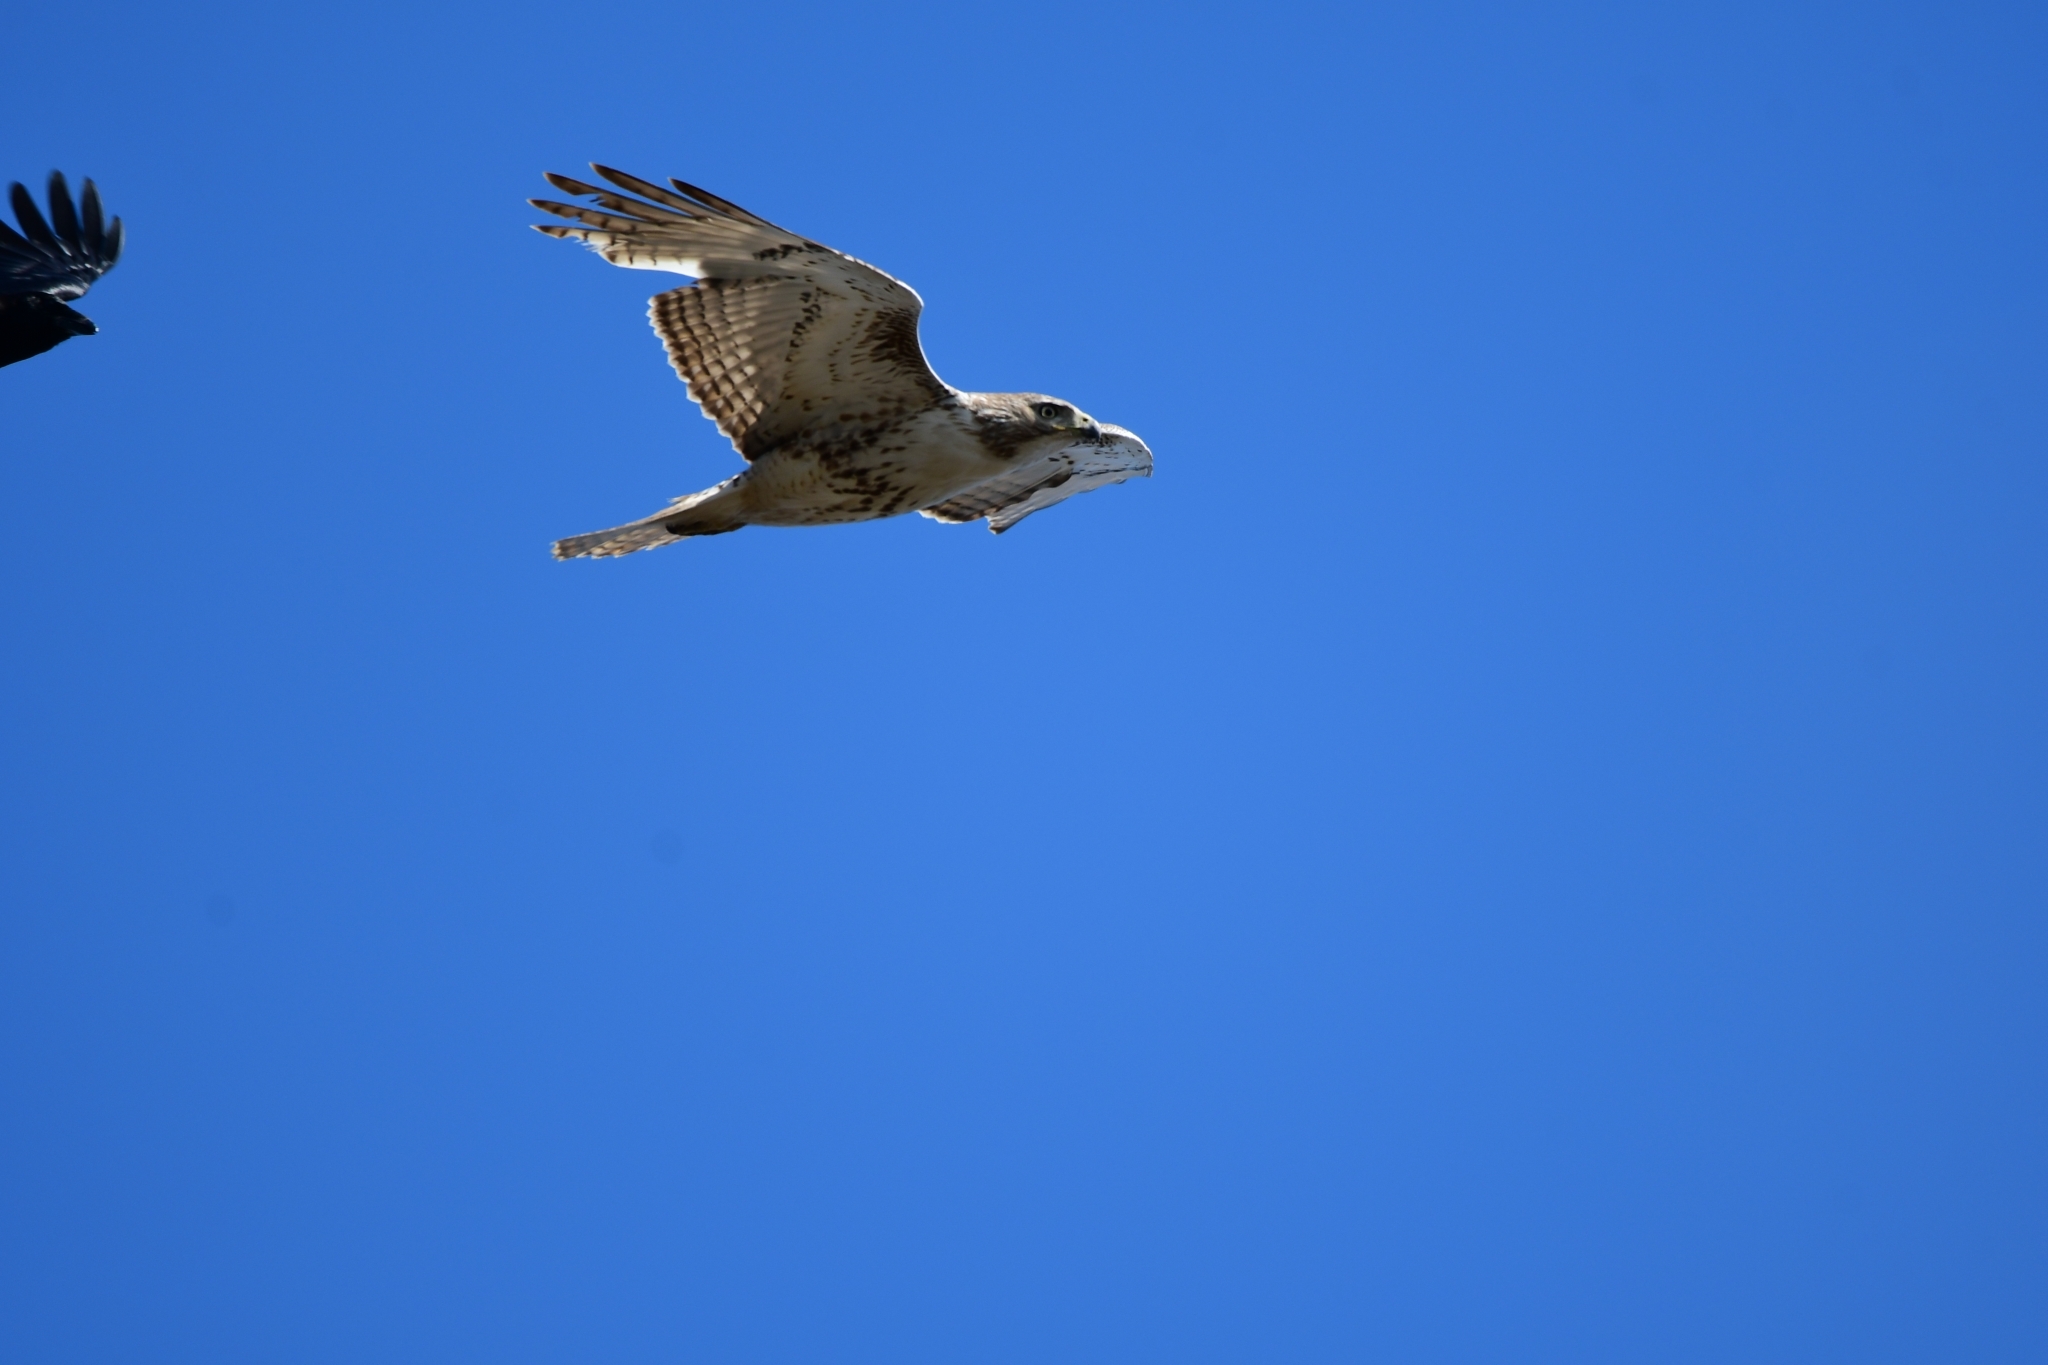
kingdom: Animalia
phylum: Chordata
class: Aves
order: Accipitriformes
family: Accipitridae
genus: Buteo
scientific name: Buteo jamaicensis
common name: Red-tailed hawk
